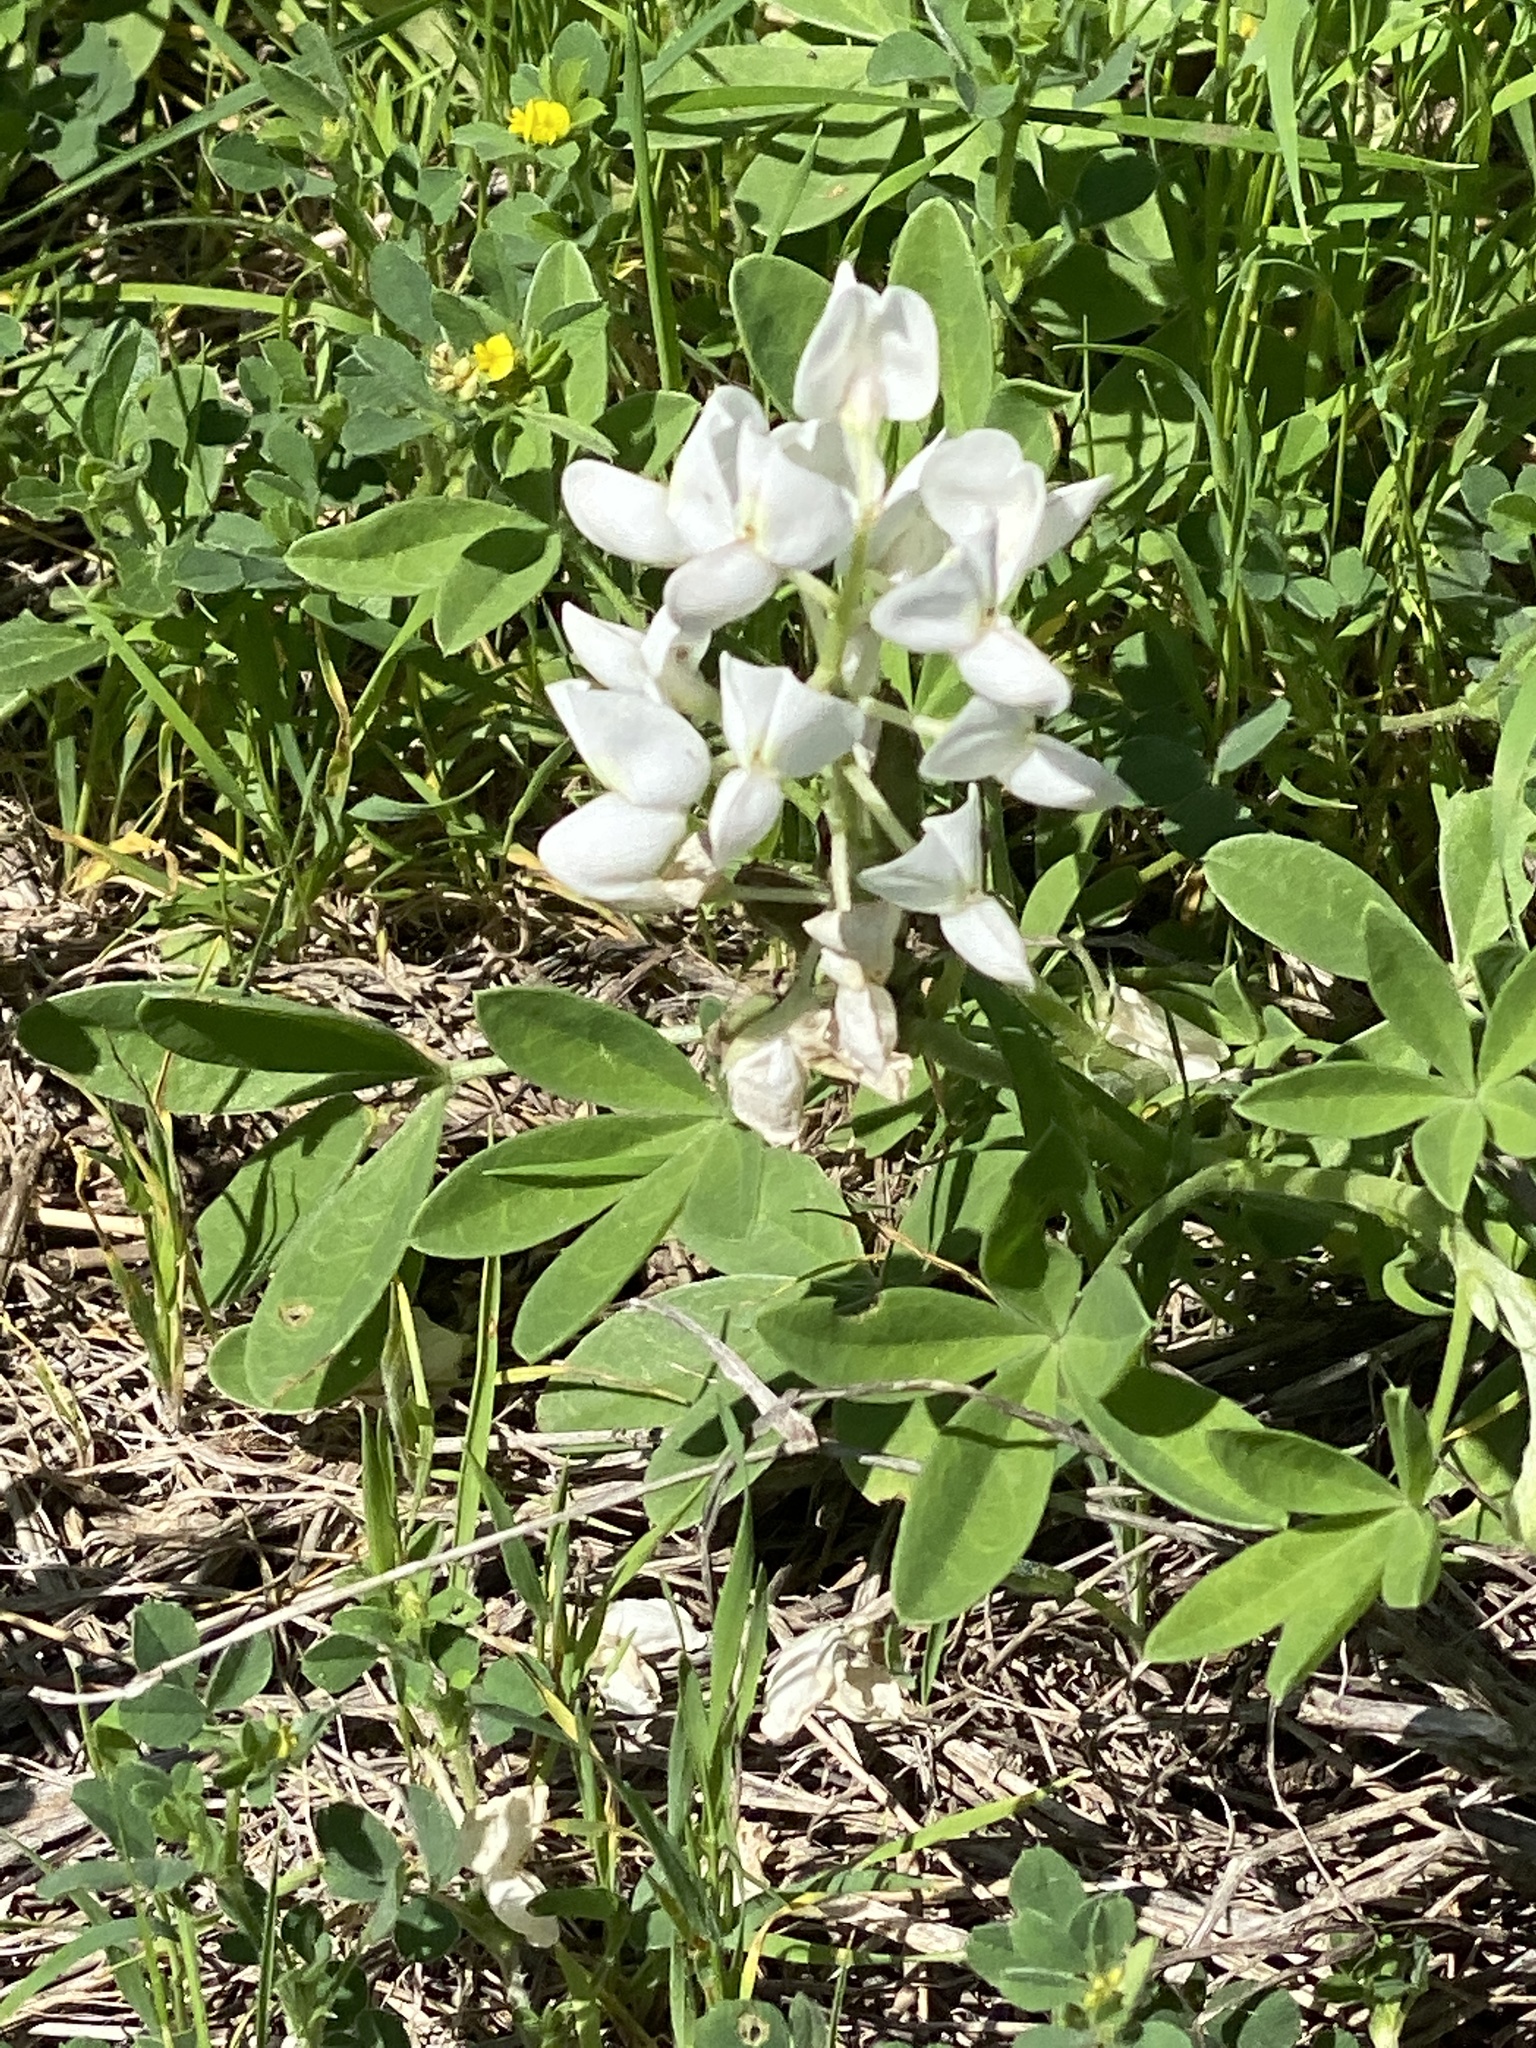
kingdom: Plantae
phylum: Tracheophyta
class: Magnoliopsida
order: Fabales
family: Fabaceae
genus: Lupinus
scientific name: Lupinus texensis
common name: Texas bluebonnet
